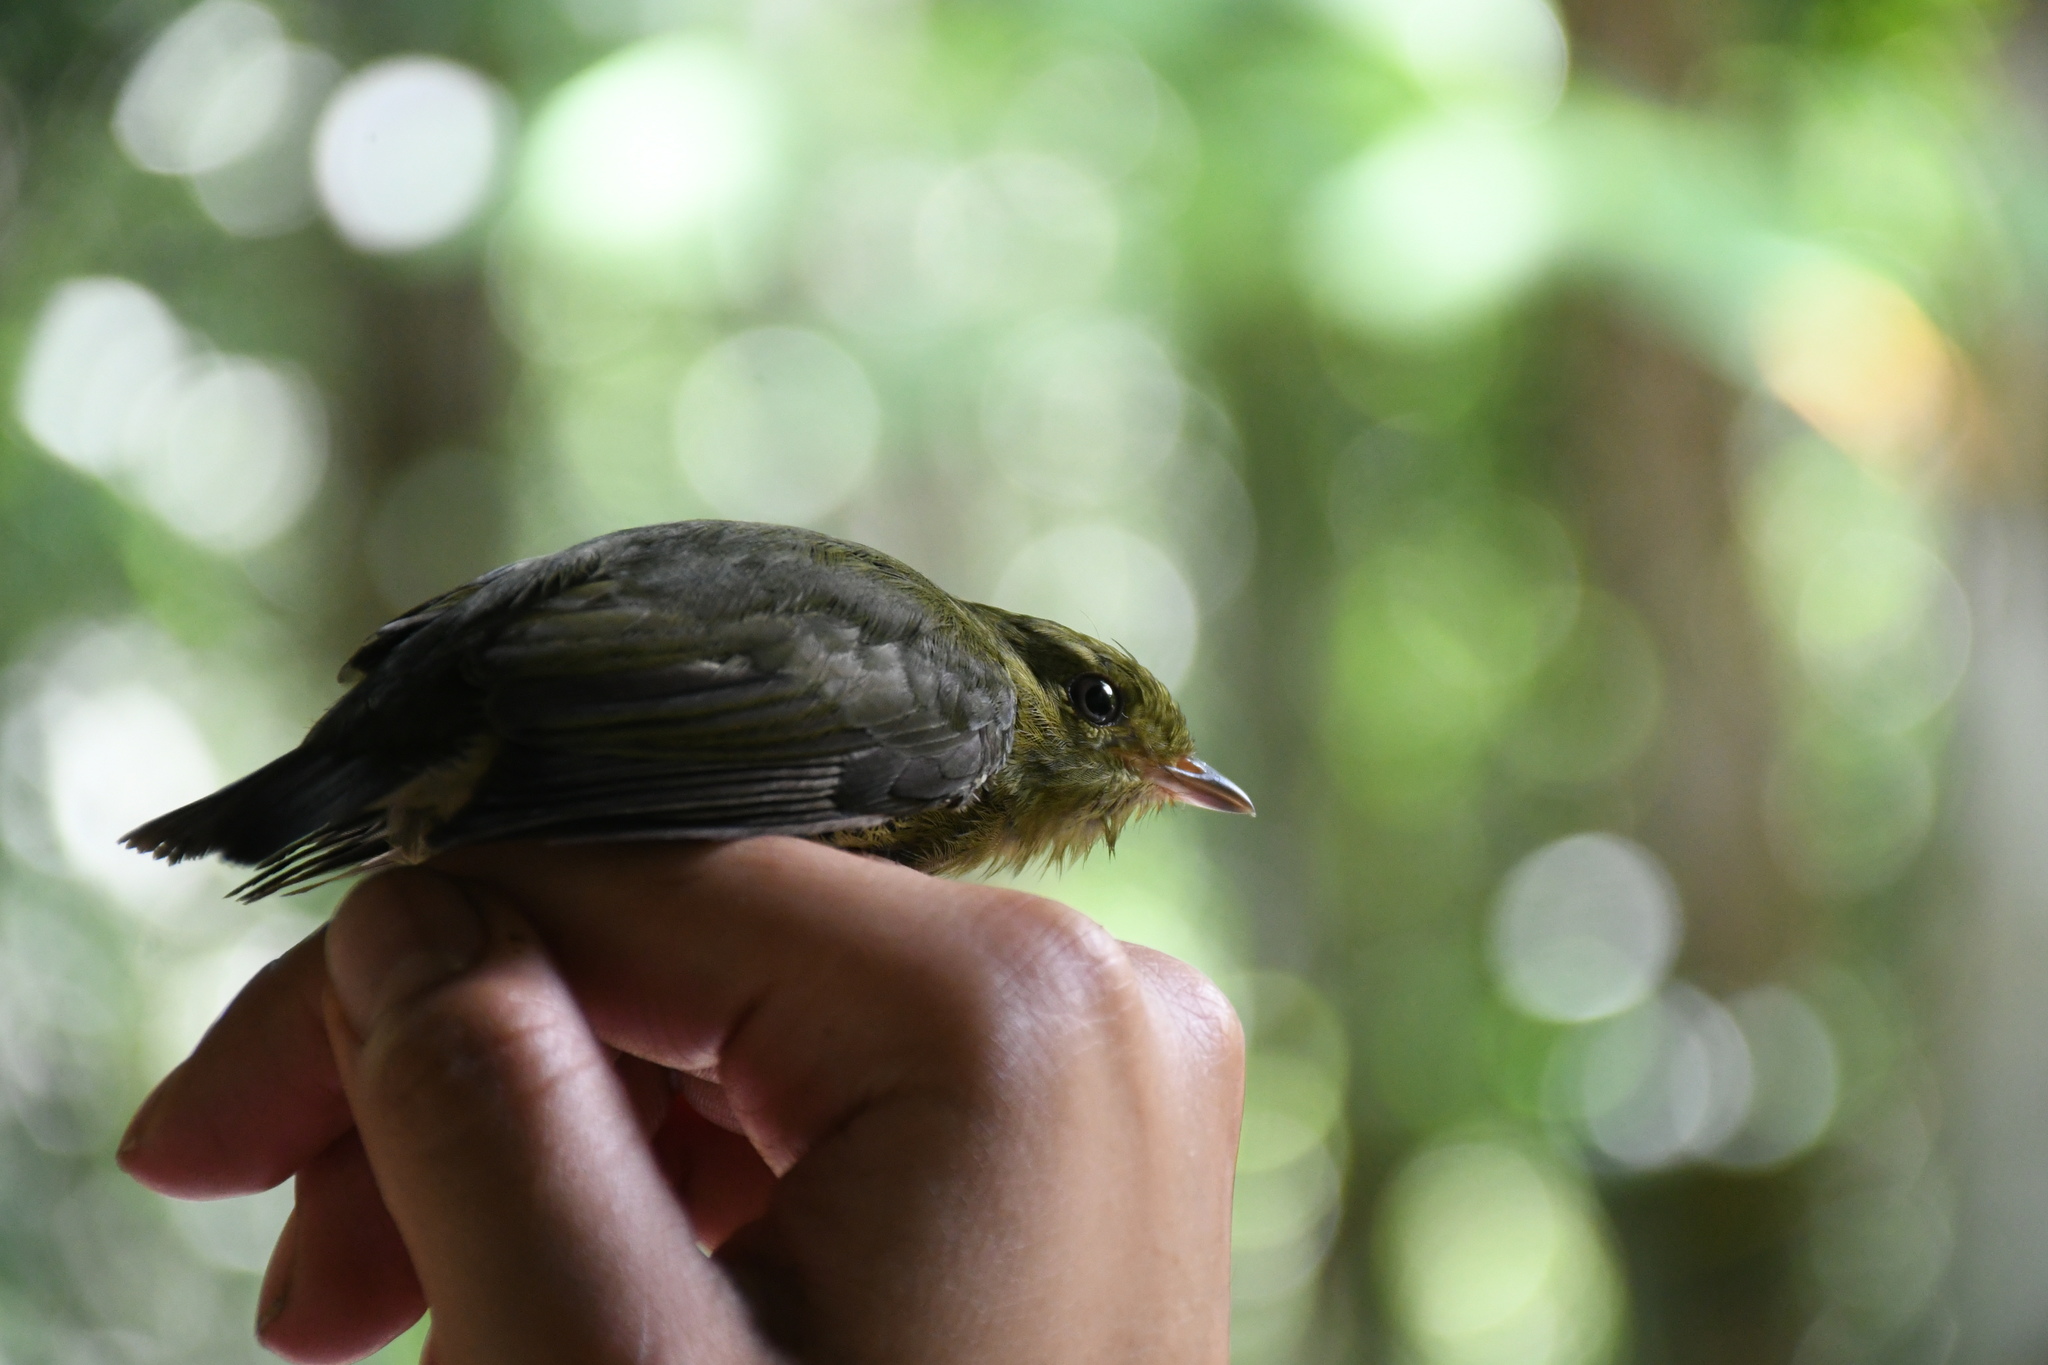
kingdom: Animalia
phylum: Chordata
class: Aves
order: Passeriformes
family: Pipridae
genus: Pipra
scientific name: Pipra mentalis
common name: Red-capped manakin
